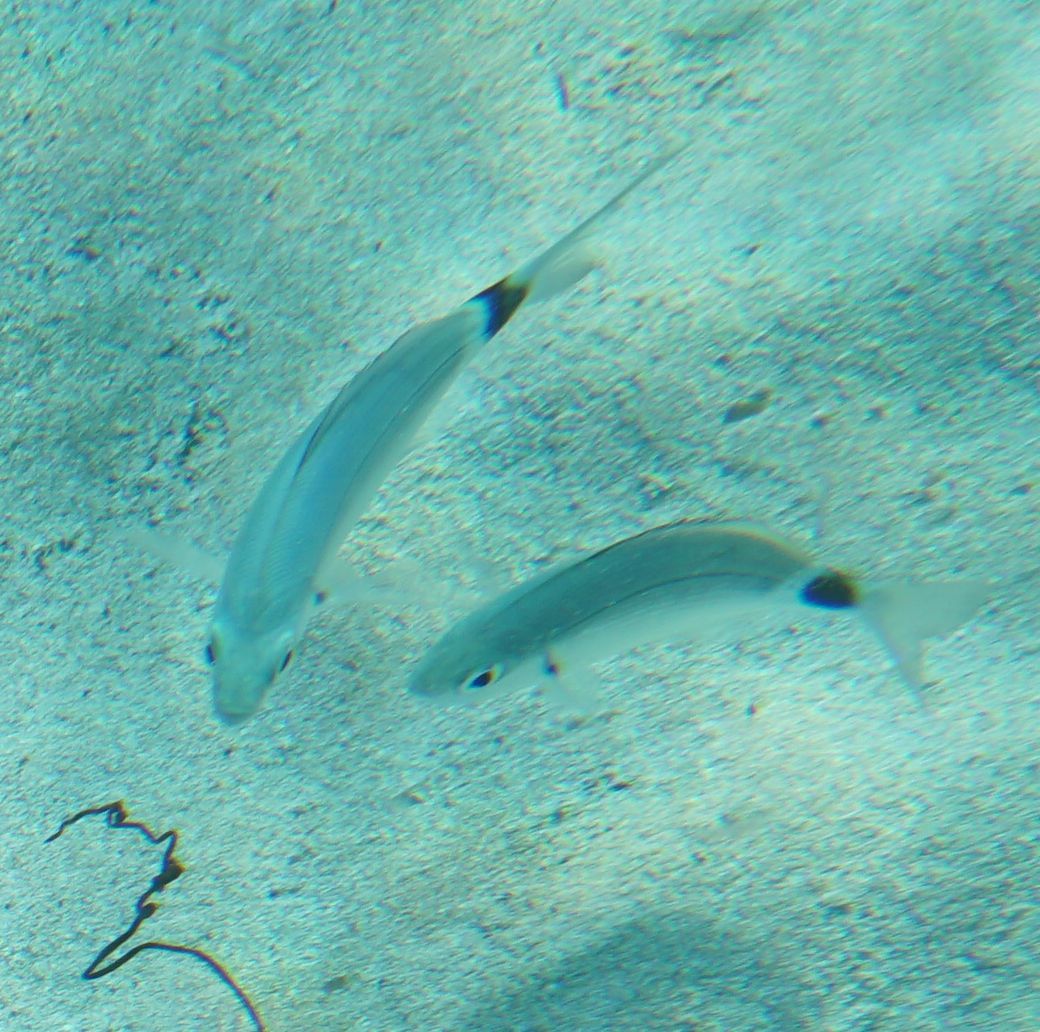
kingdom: Animalia
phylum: Chordata
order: Perciformes
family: Sparidae
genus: Oblada
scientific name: Oblada melanura
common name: Saddled seabream
